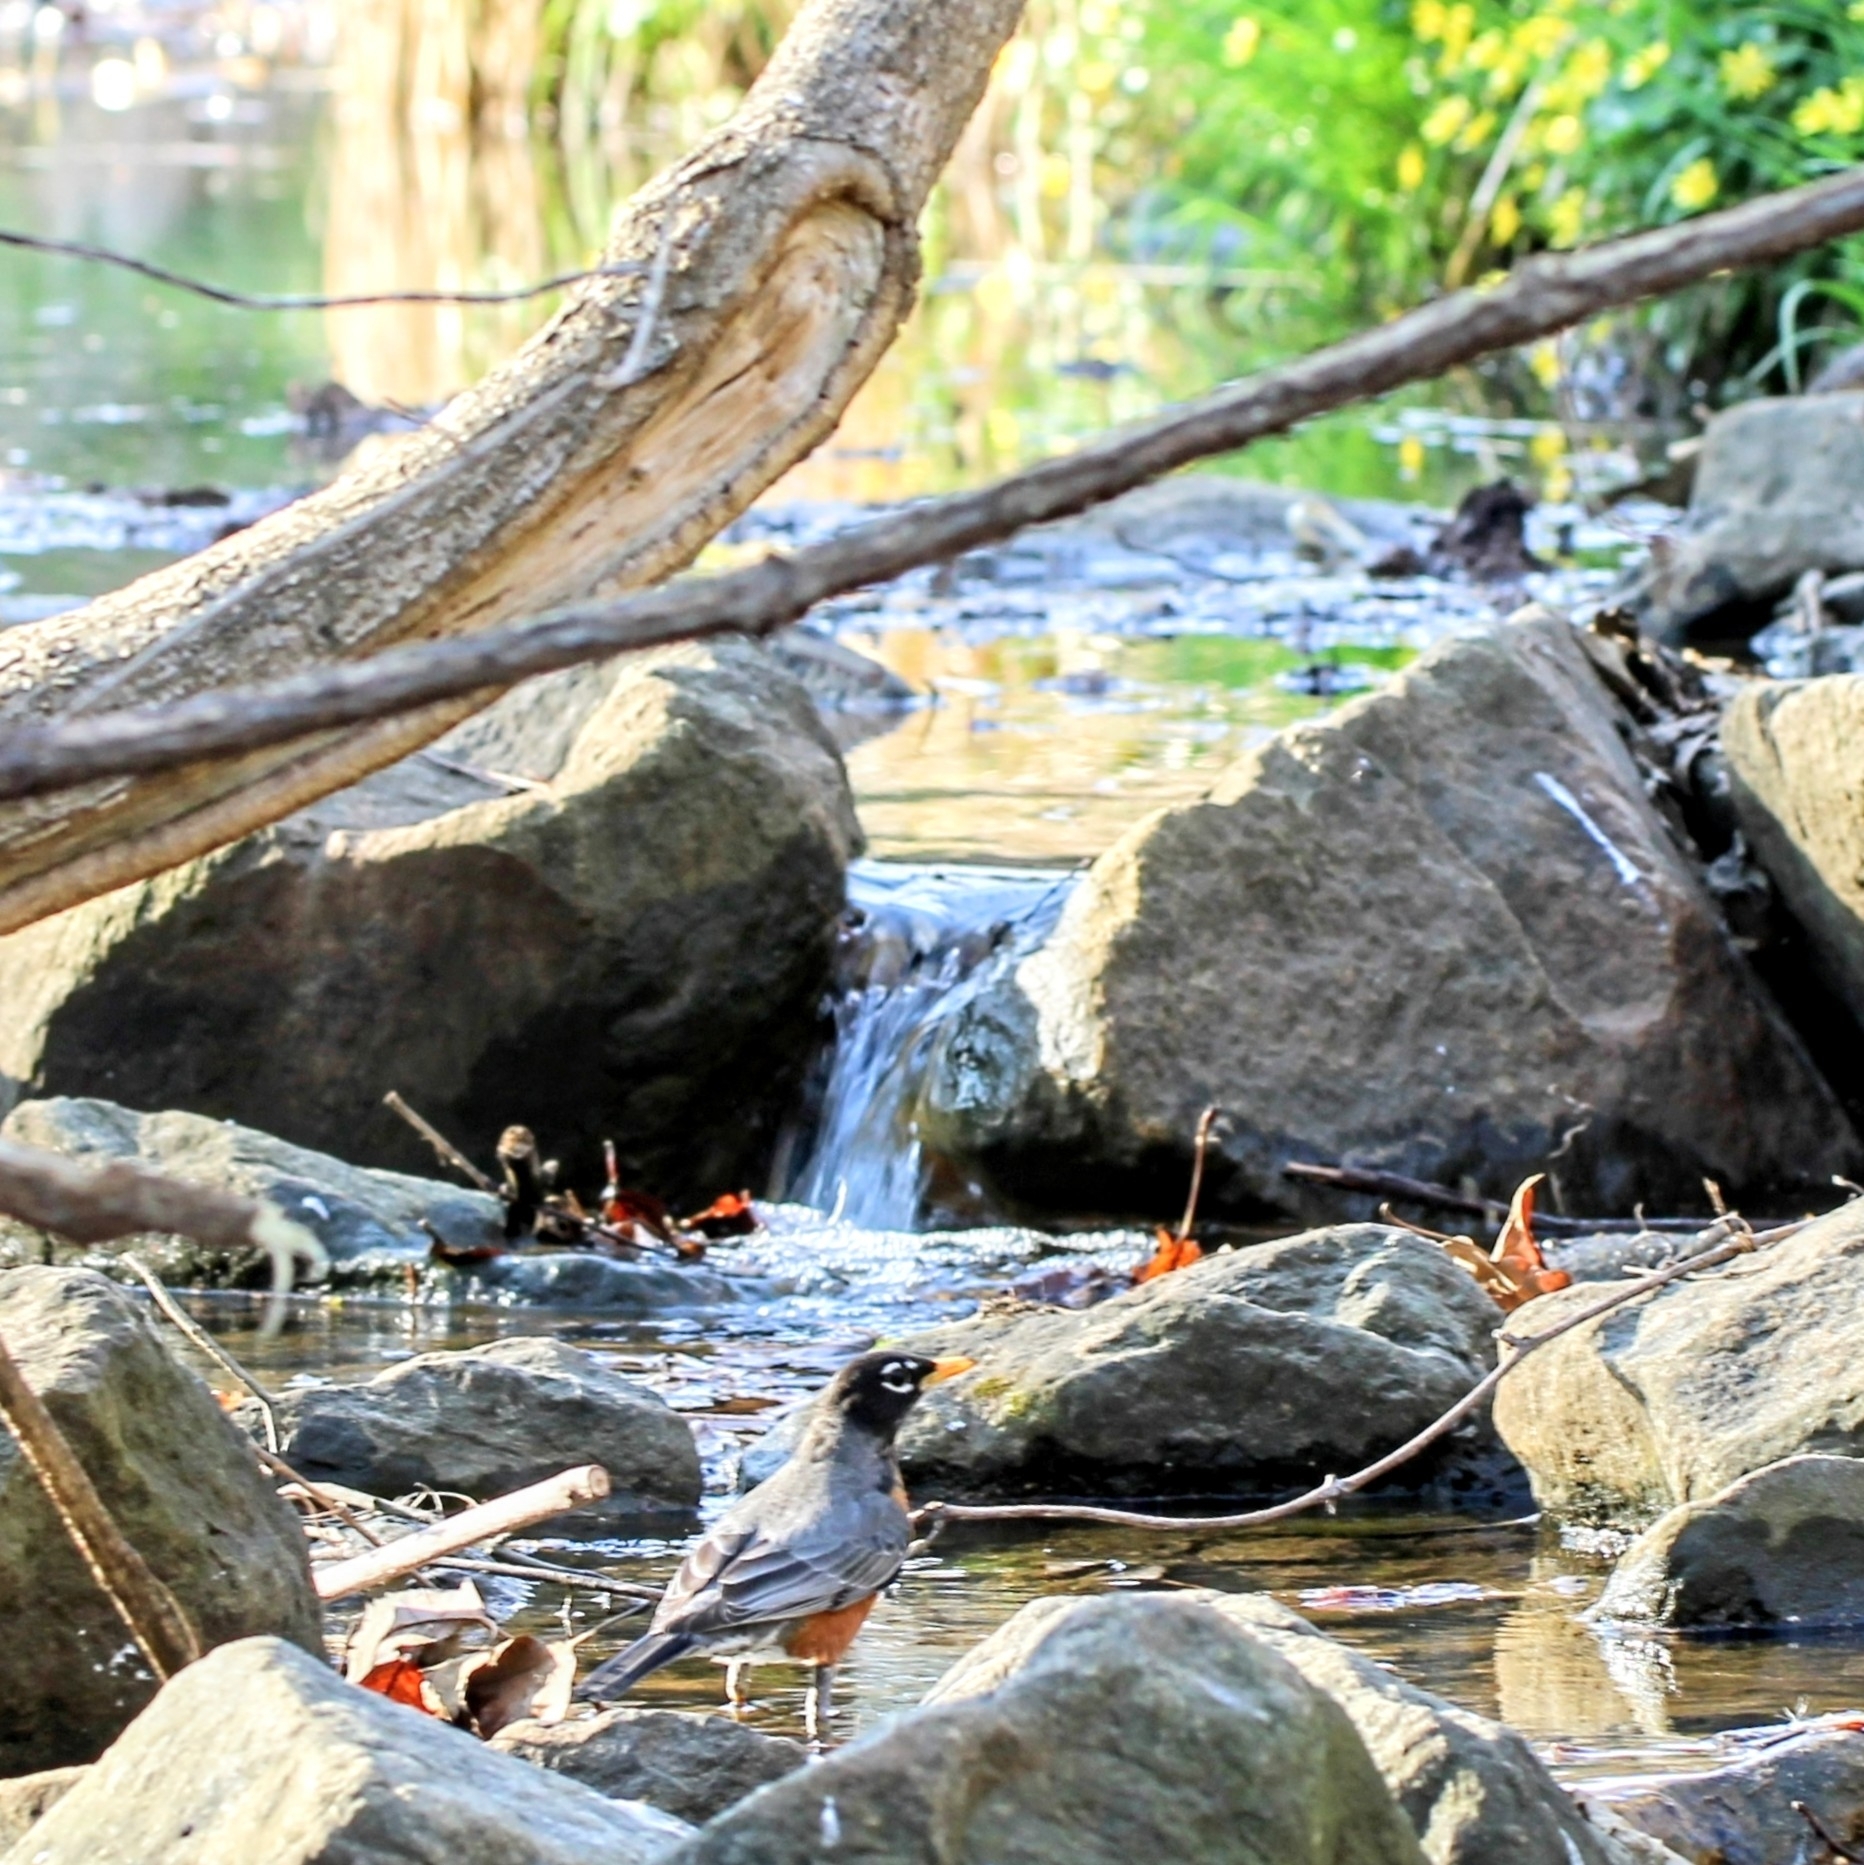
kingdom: Animalia
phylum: Chordata
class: Aves
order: Passeriformes
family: Turdidae
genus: Turdus
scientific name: Turdus migratorius
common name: American robin
